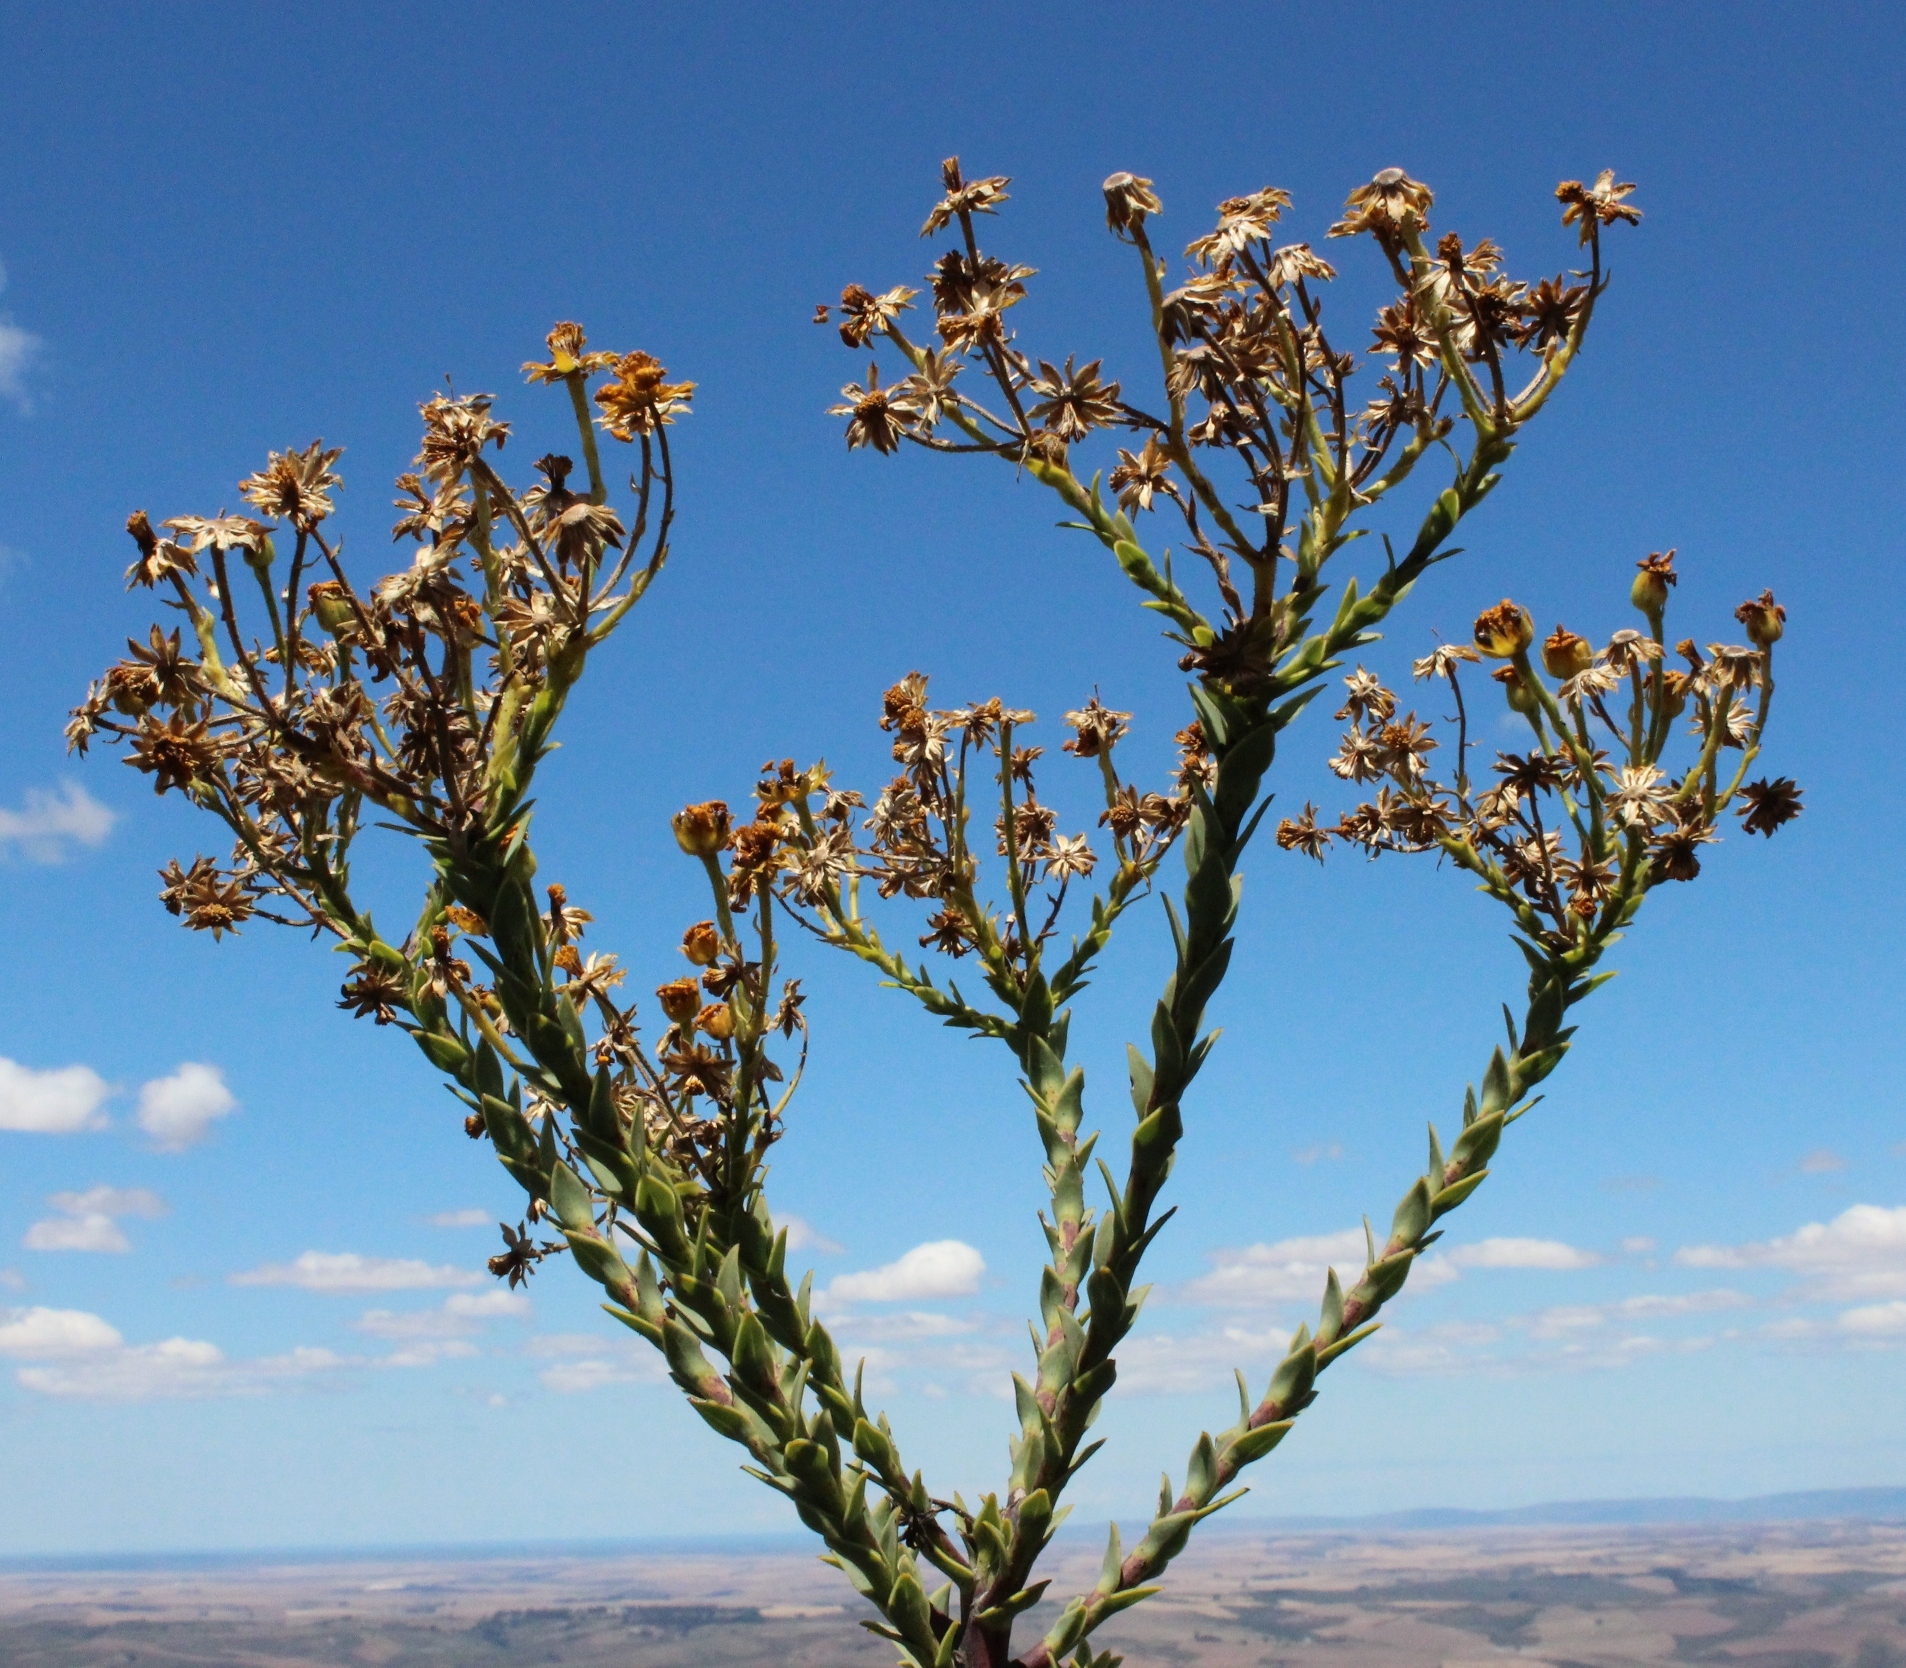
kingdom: Plantae
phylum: Tracheophyta
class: Magnoliopsida
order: Asterales
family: Asteraceae
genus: Osteospermum
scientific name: Osteospermum corymbosum
